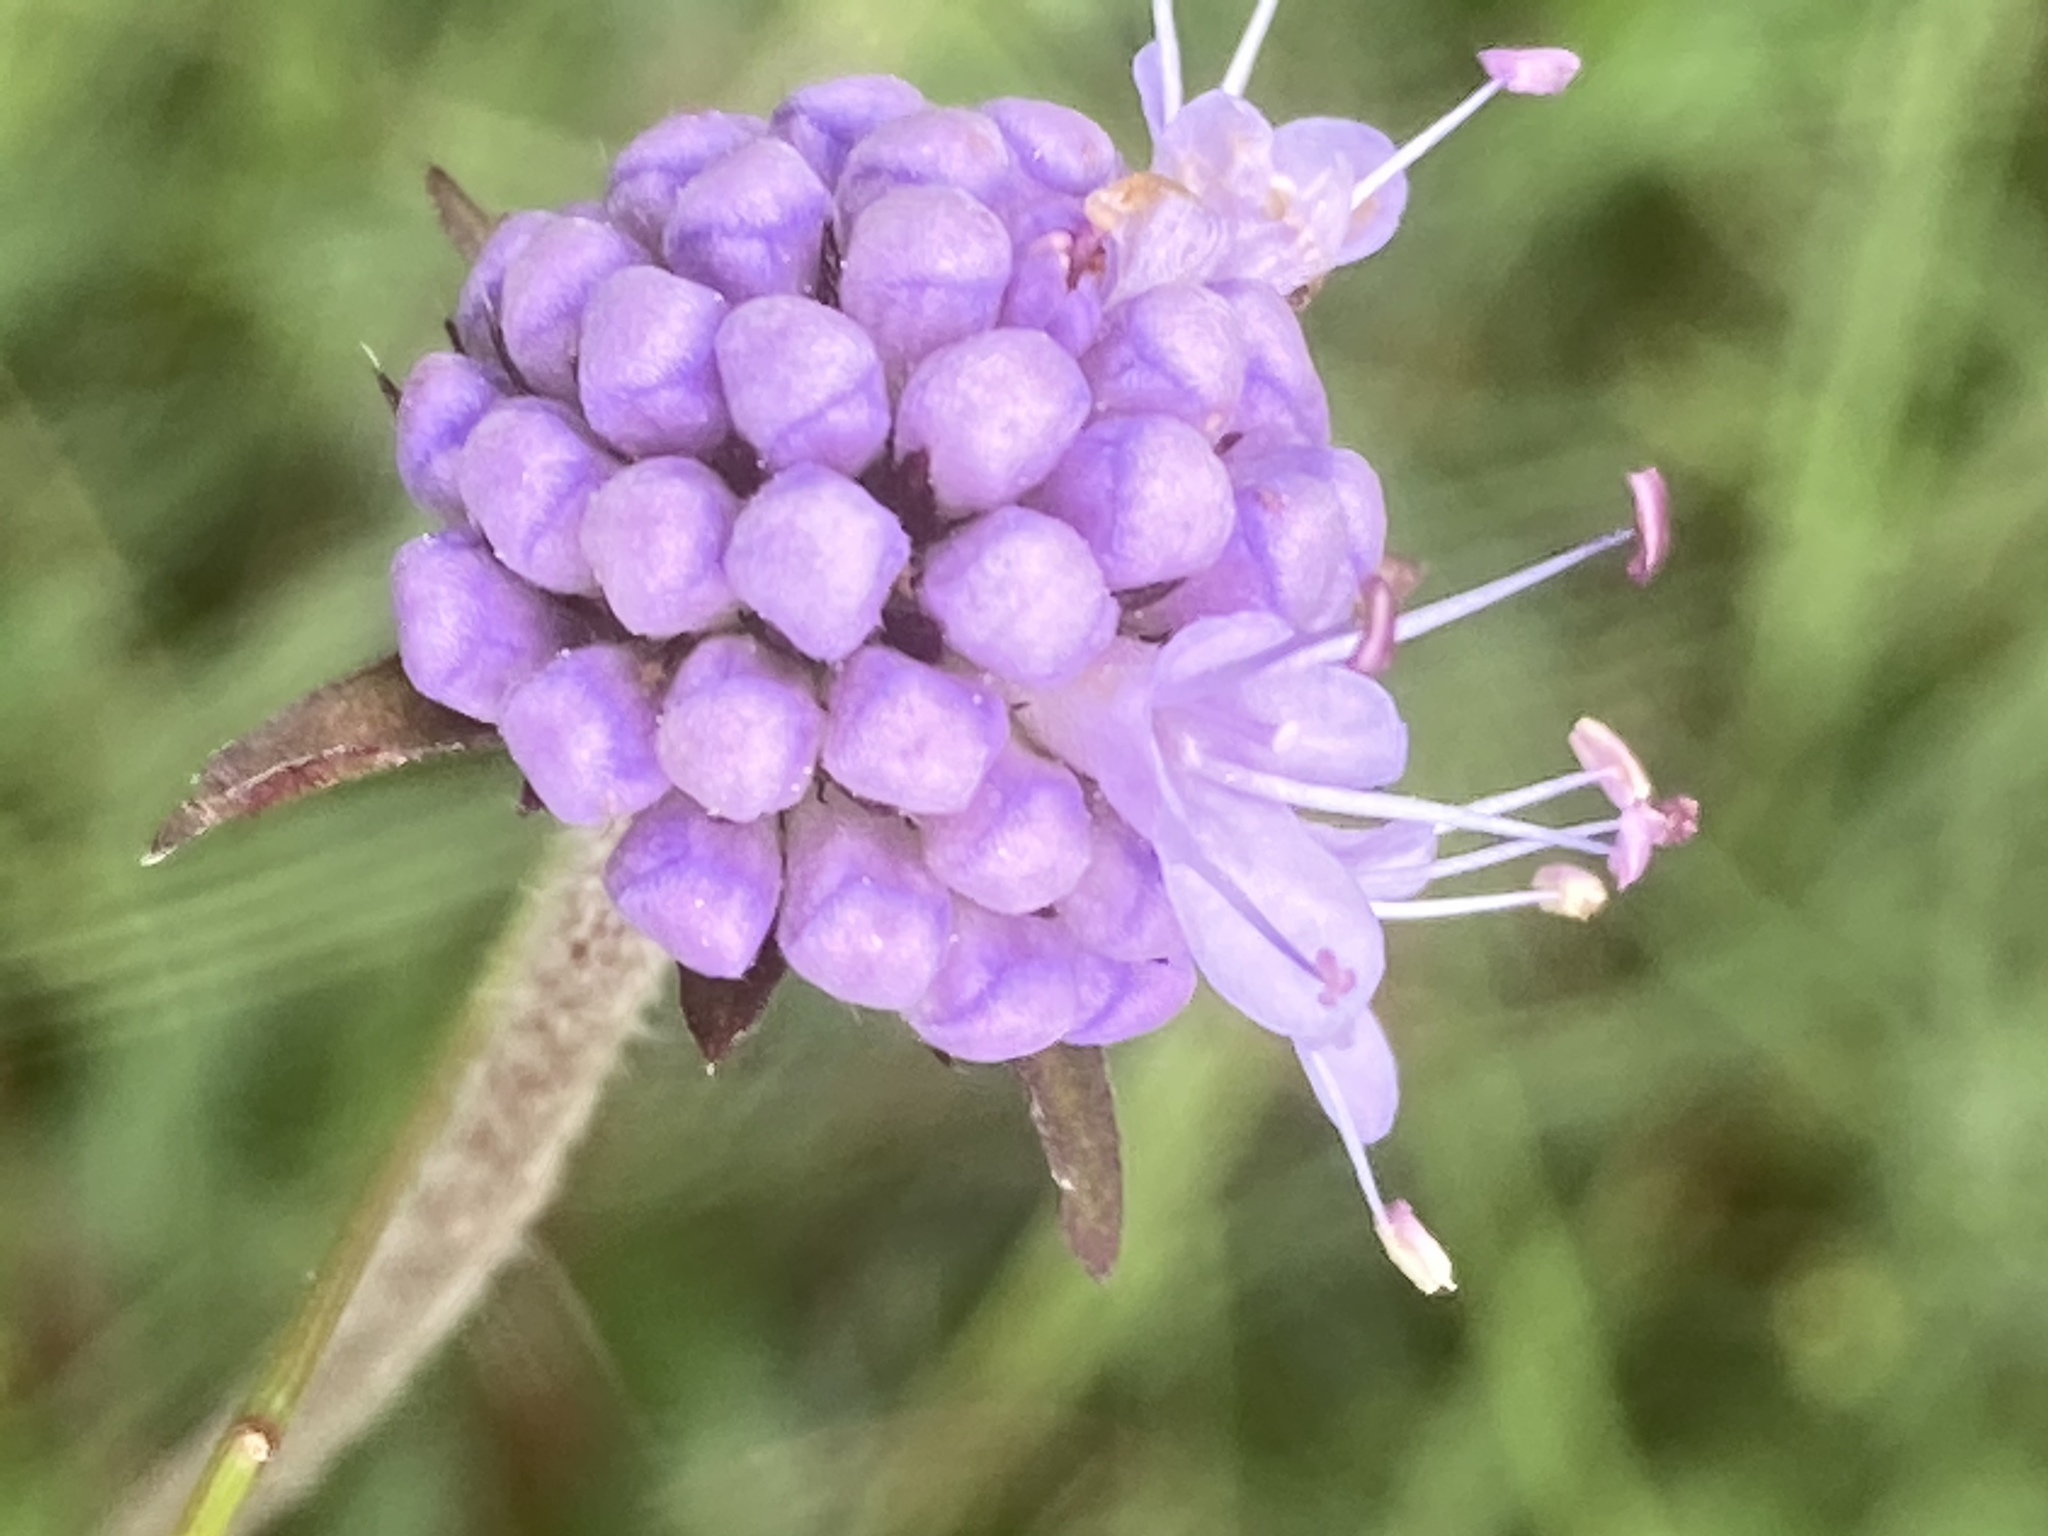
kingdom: Plantae
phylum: Tracheophyta
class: Magnoliopsida
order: Dipsacales
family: Caprifoliaceae
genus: Succisa
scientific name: Succisa pratensis
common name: Devil's-bit
